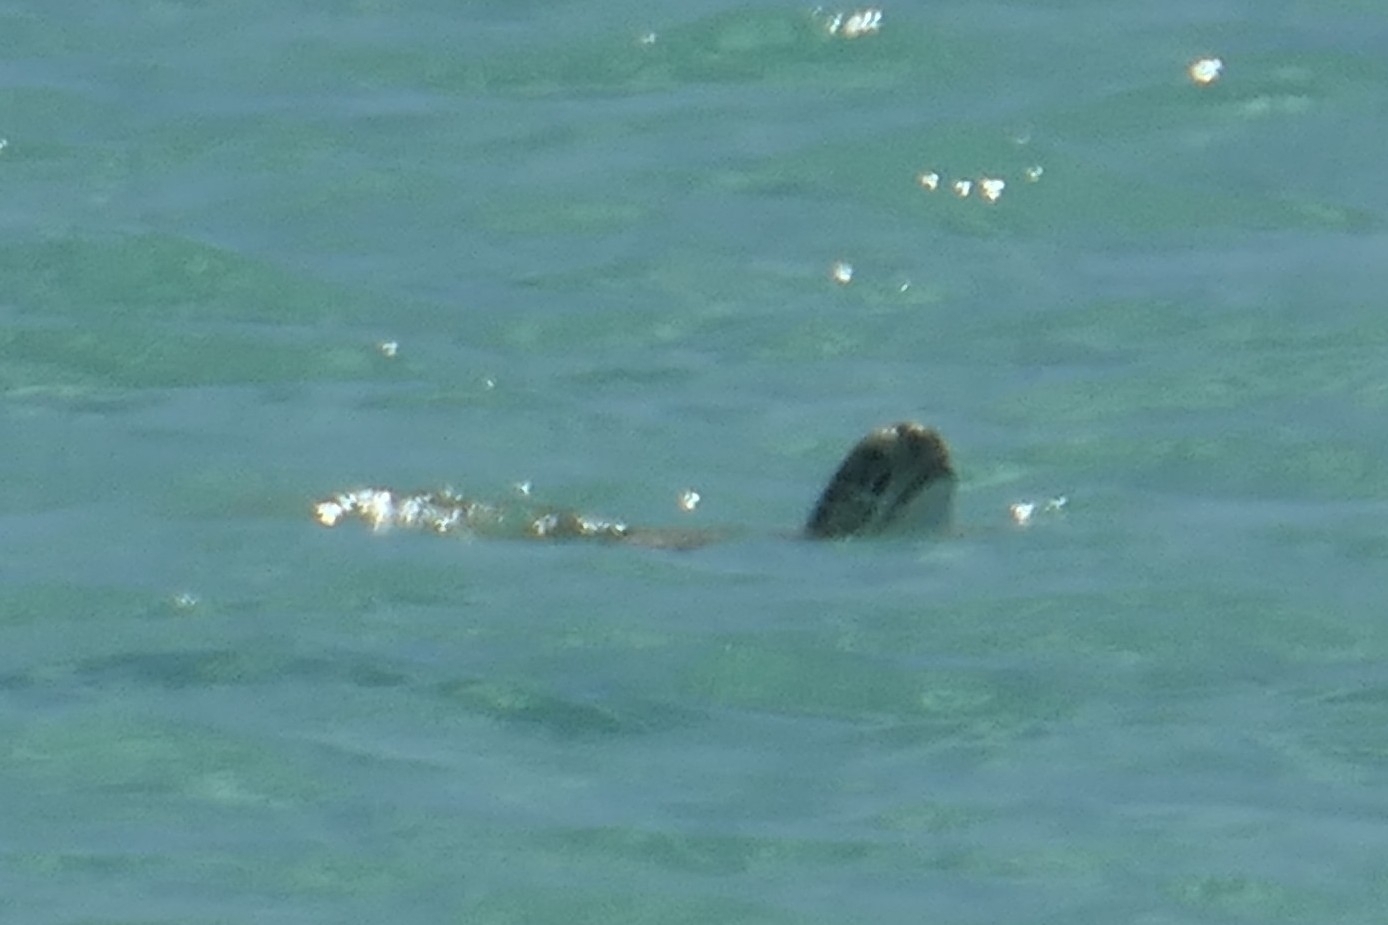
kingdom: Animalia
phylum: Chordata
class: Testudines
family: Cheloniidae
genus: Chelonia
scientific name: Chelonia mydas
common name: Green turtle
